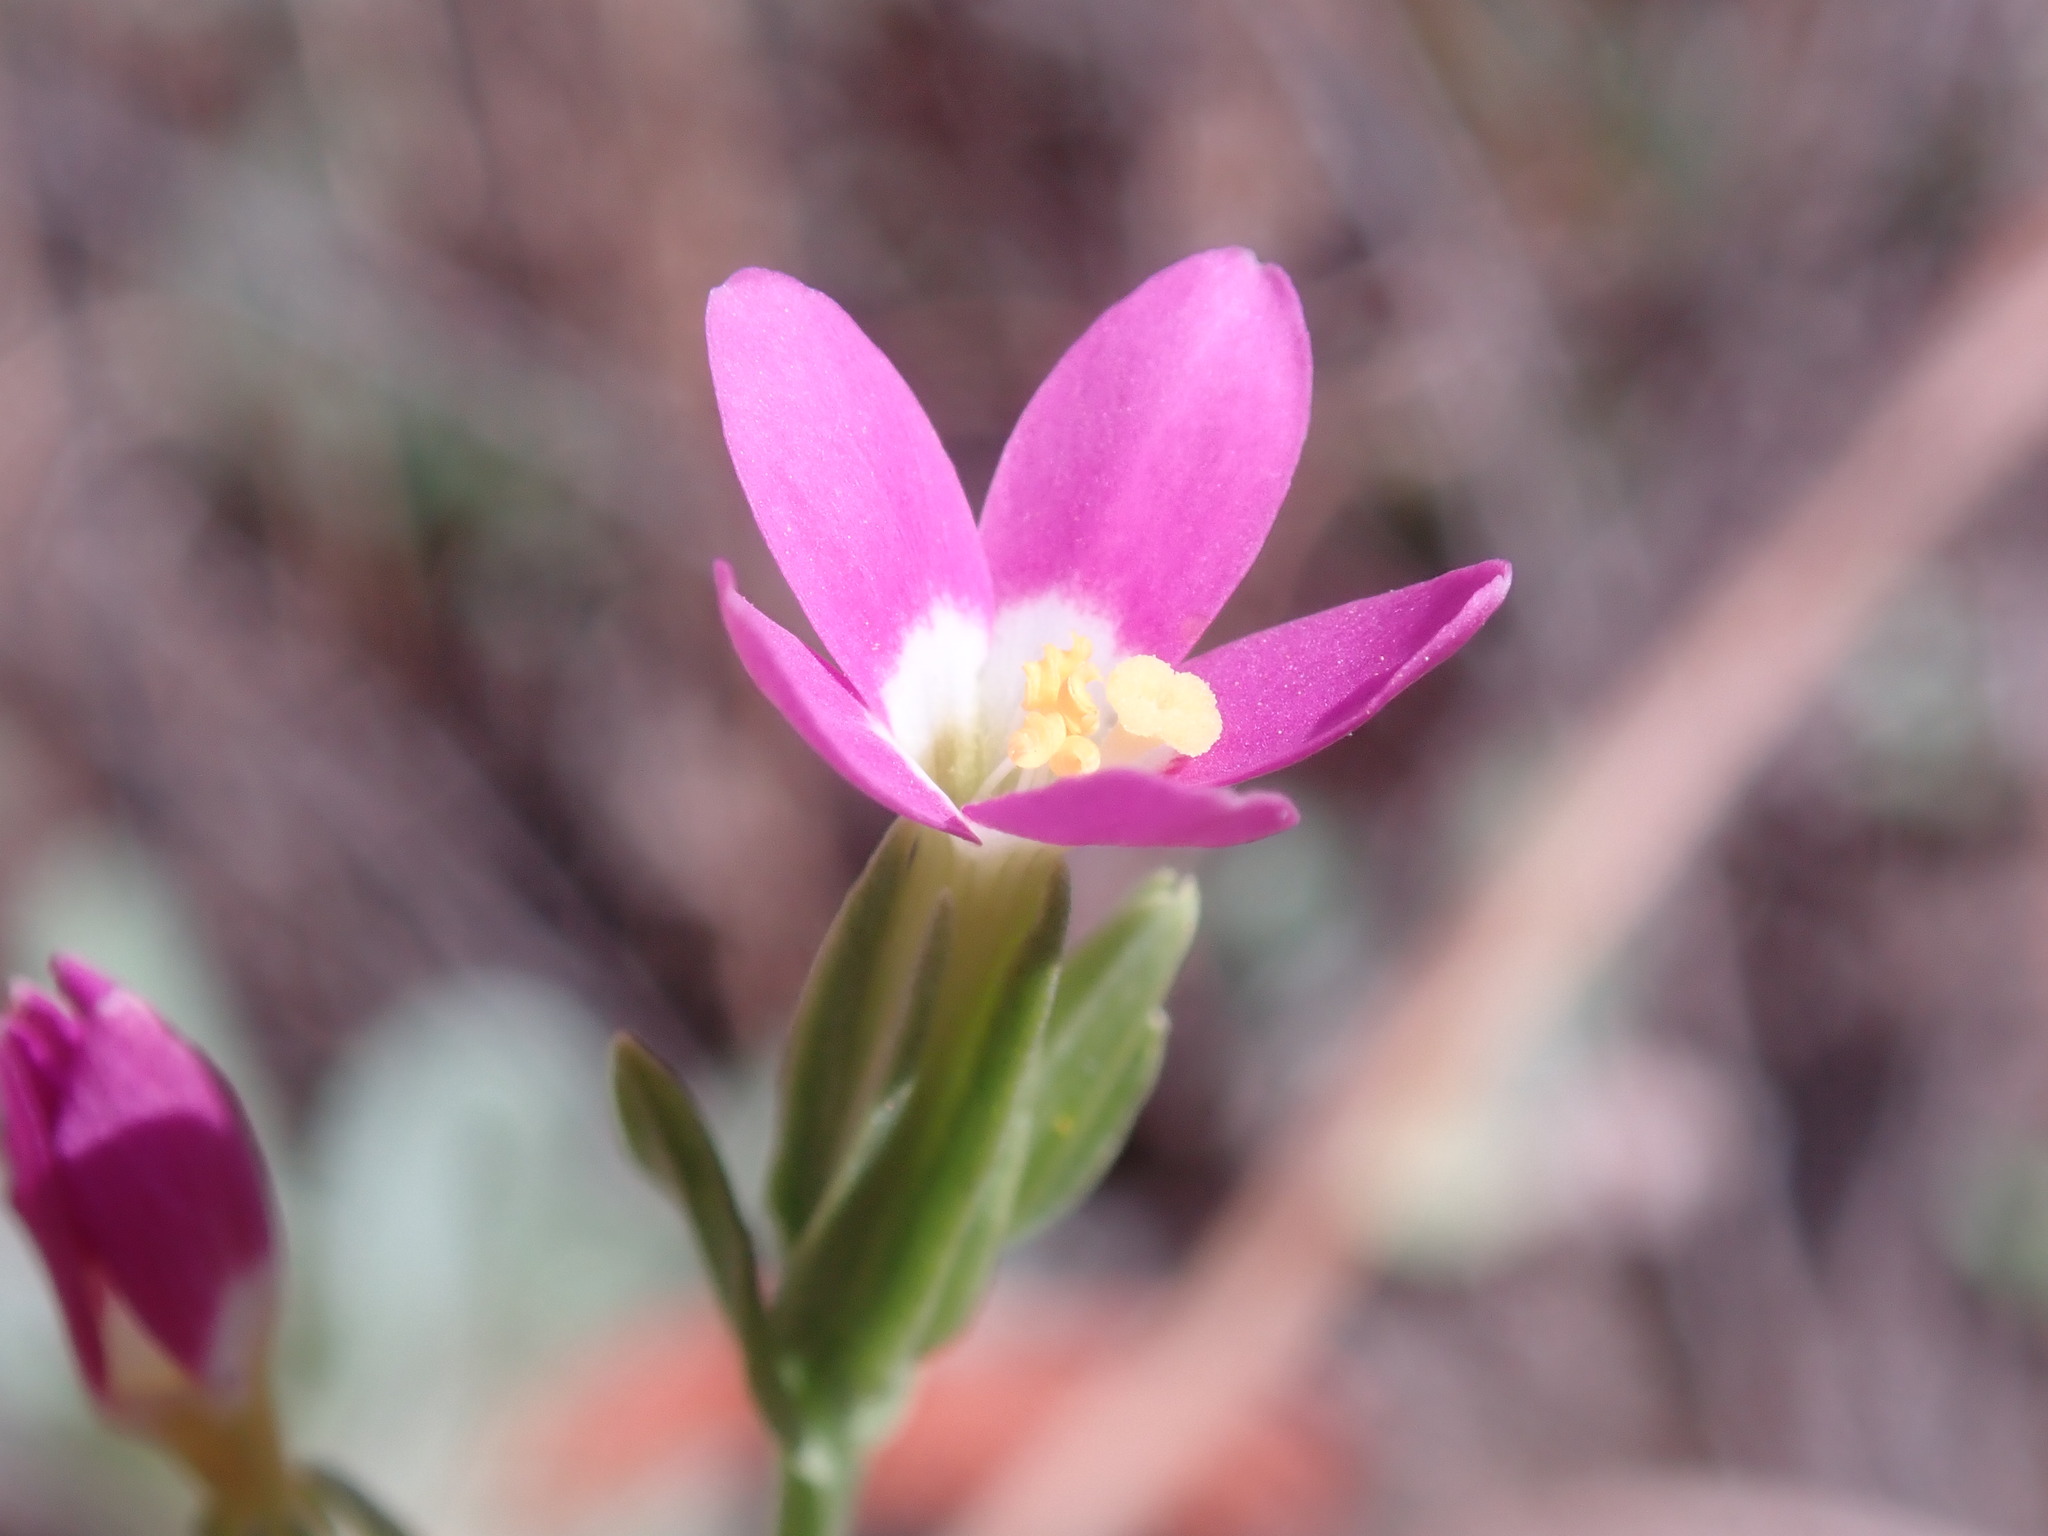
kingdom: Plantae
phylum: Tracheophyta
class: Magnoliopsida
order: Gentianales
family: Gentianaceae
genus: Zeltnera
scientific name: Zeltnera davyi
